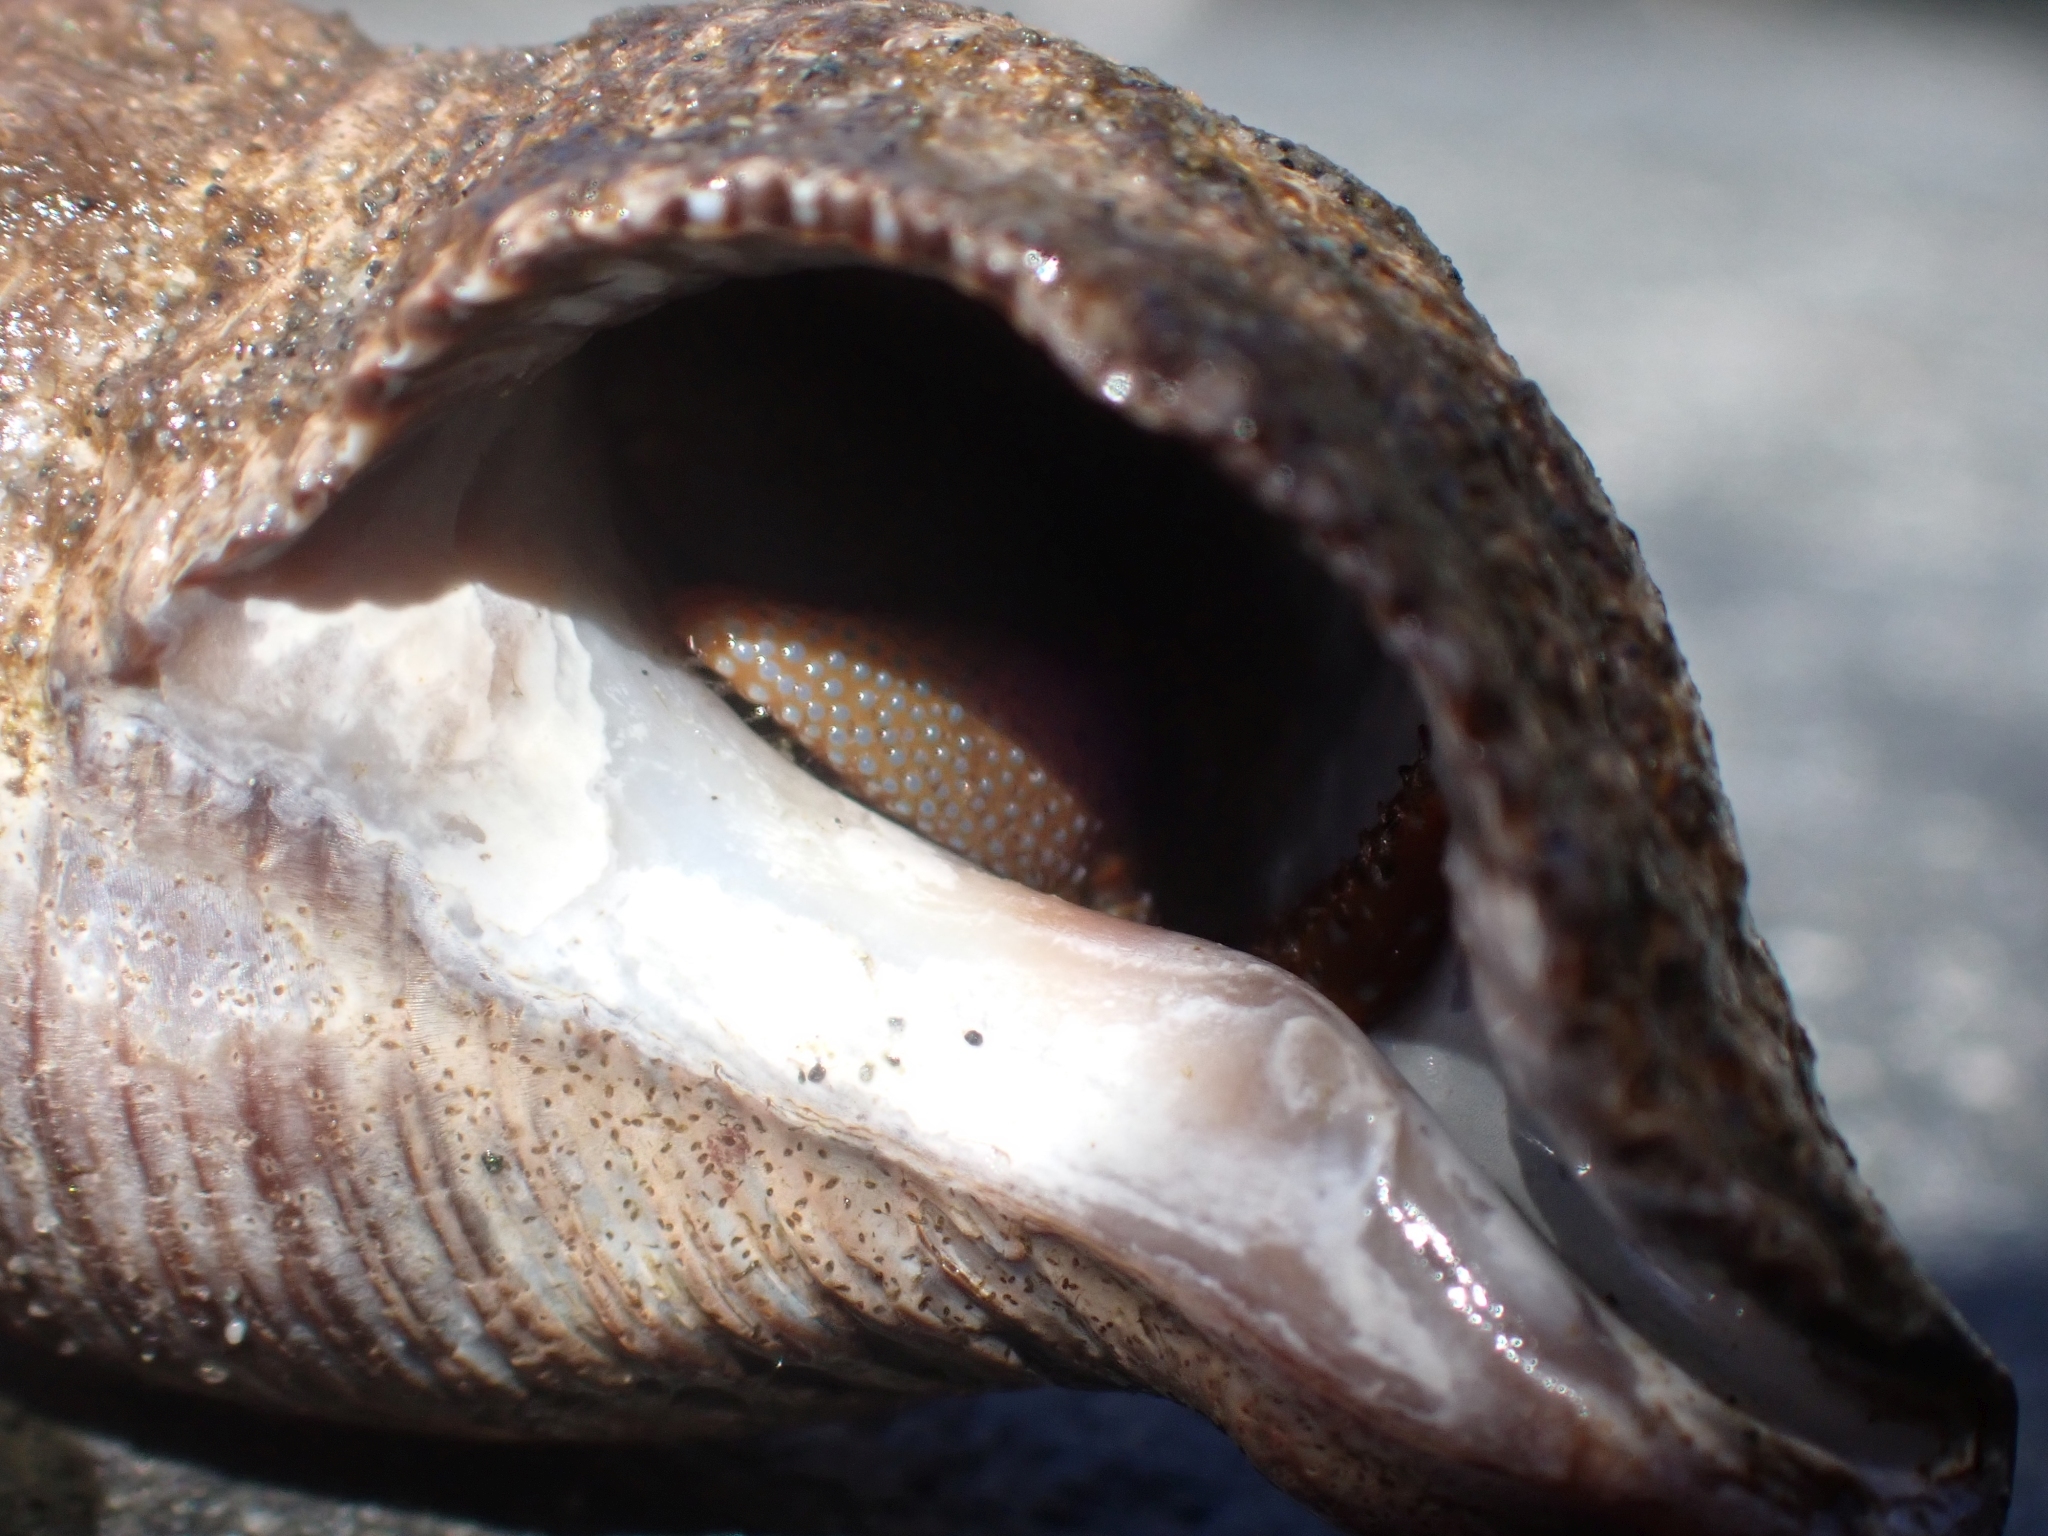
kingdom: Animalia
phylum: Arthropoda
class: Malacostraca
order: Decapoda
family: Paguridae
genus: Pagurus
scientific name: Pagurus granosimanus
